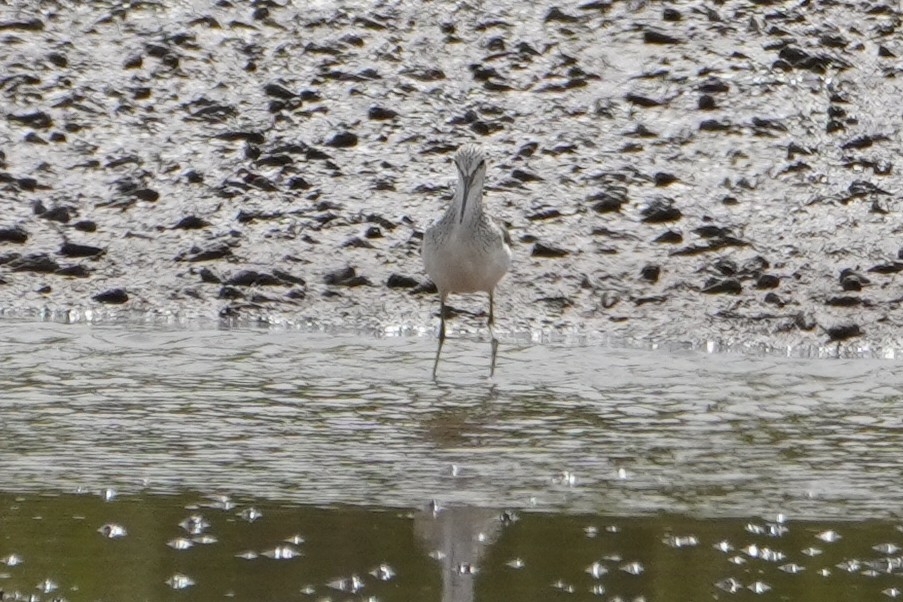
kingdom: Animalia
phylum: Chordata
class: Aves
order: Charadriiformes
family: Scolopacidae
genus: Tringa
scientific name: Tringa nebularia
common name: Common greenshank
